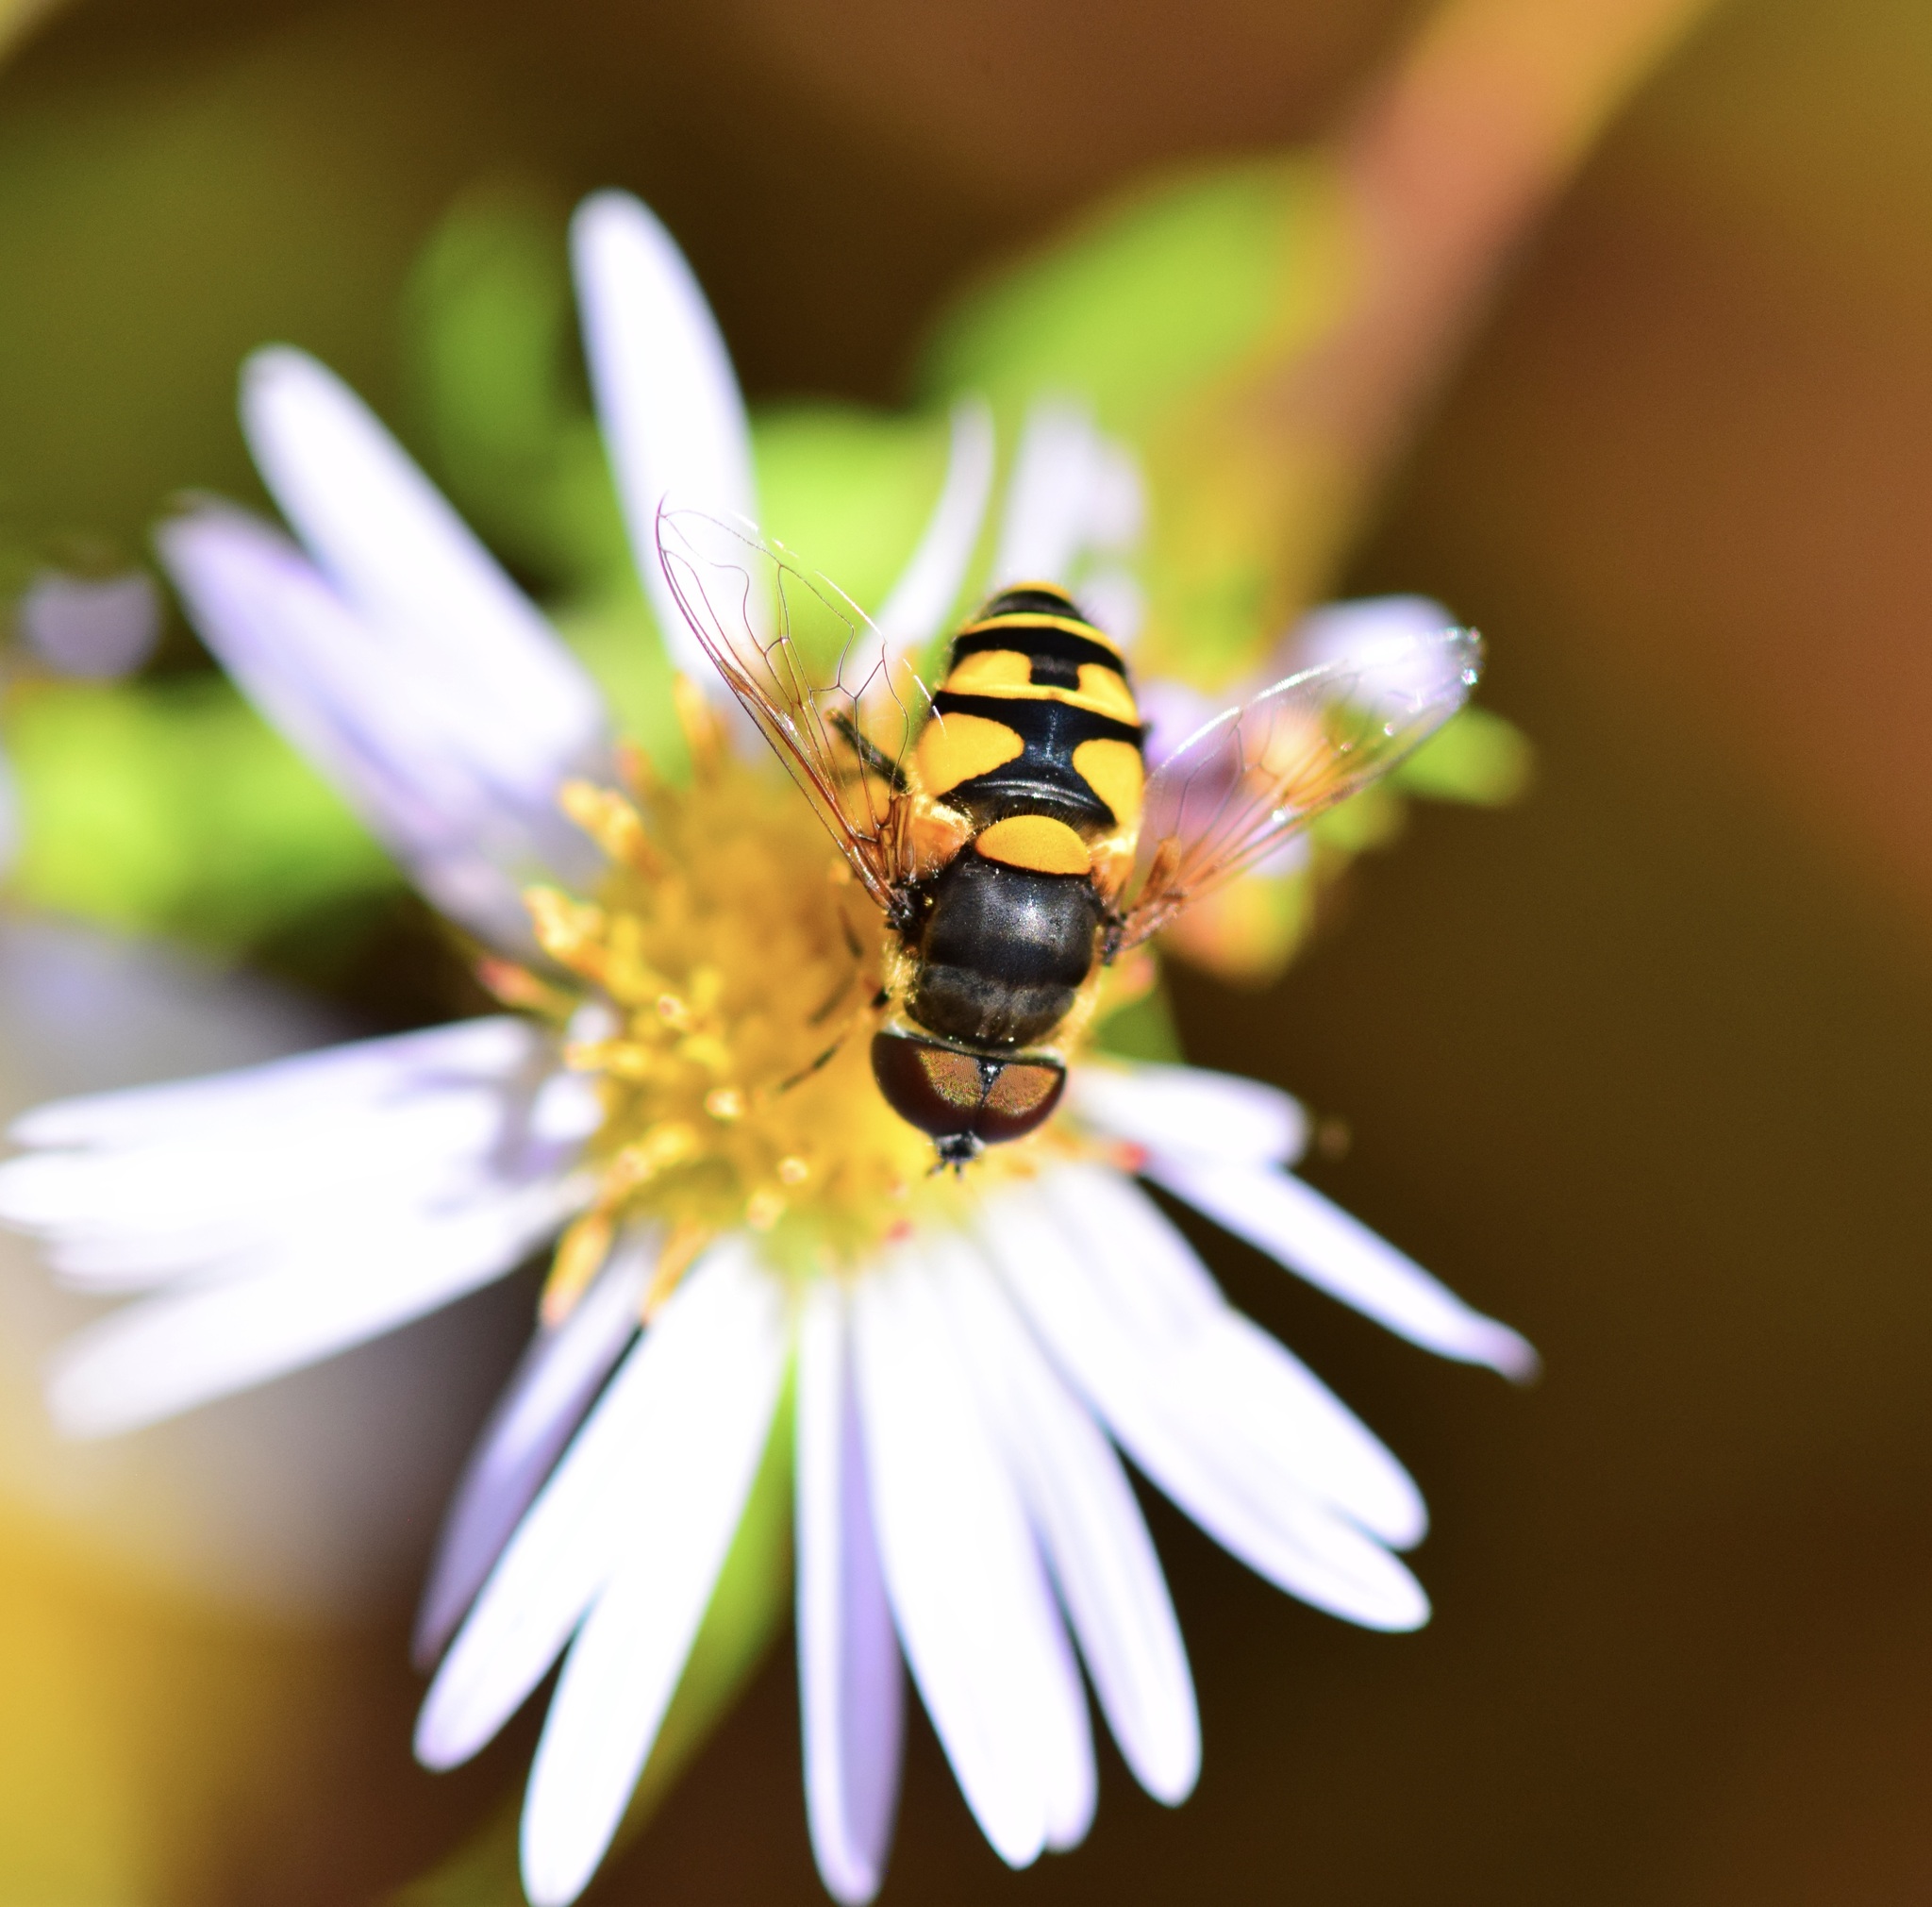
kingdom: Animalia
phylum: Arthropoda
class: Insecta
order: Diptera
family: Syrphidae
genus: Eristalis
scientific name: Eristalis transversa
